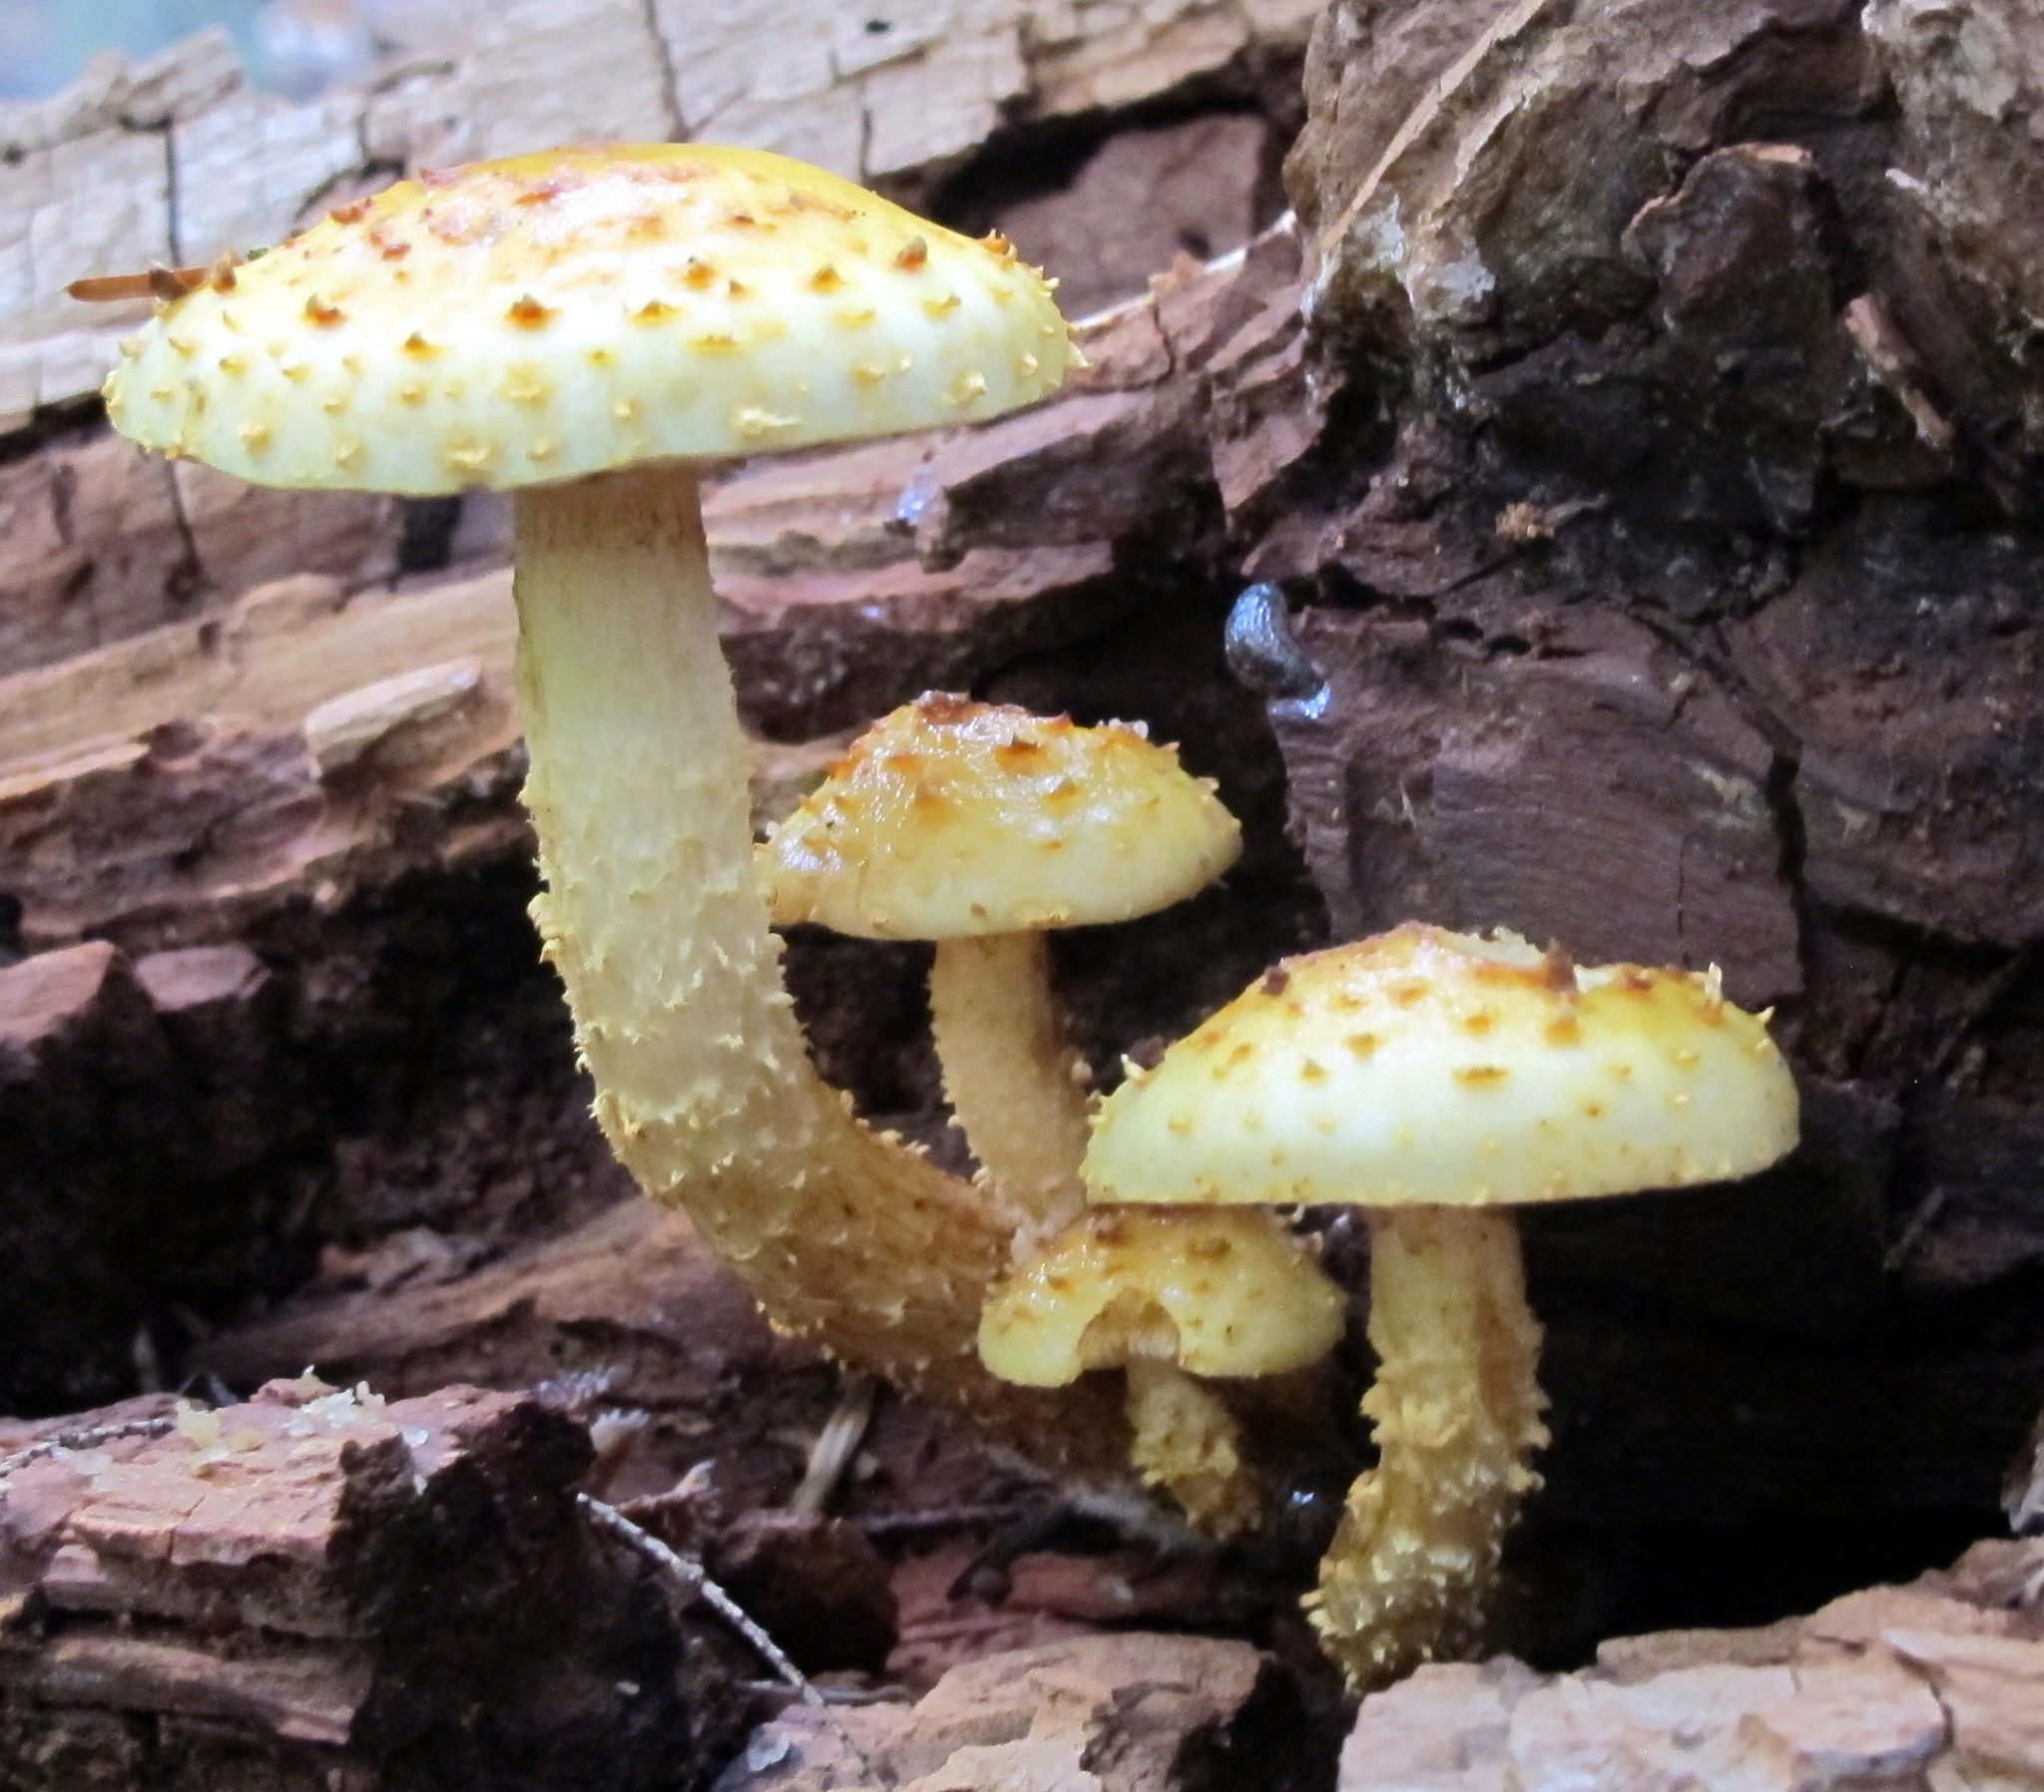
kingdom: Fungi
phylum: Basidiomycota
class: Agaricomycetes
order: Agaricales
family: Strophariaceae
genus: Pholiota
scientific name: Pholiota aurivella
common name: Golden scalycap
